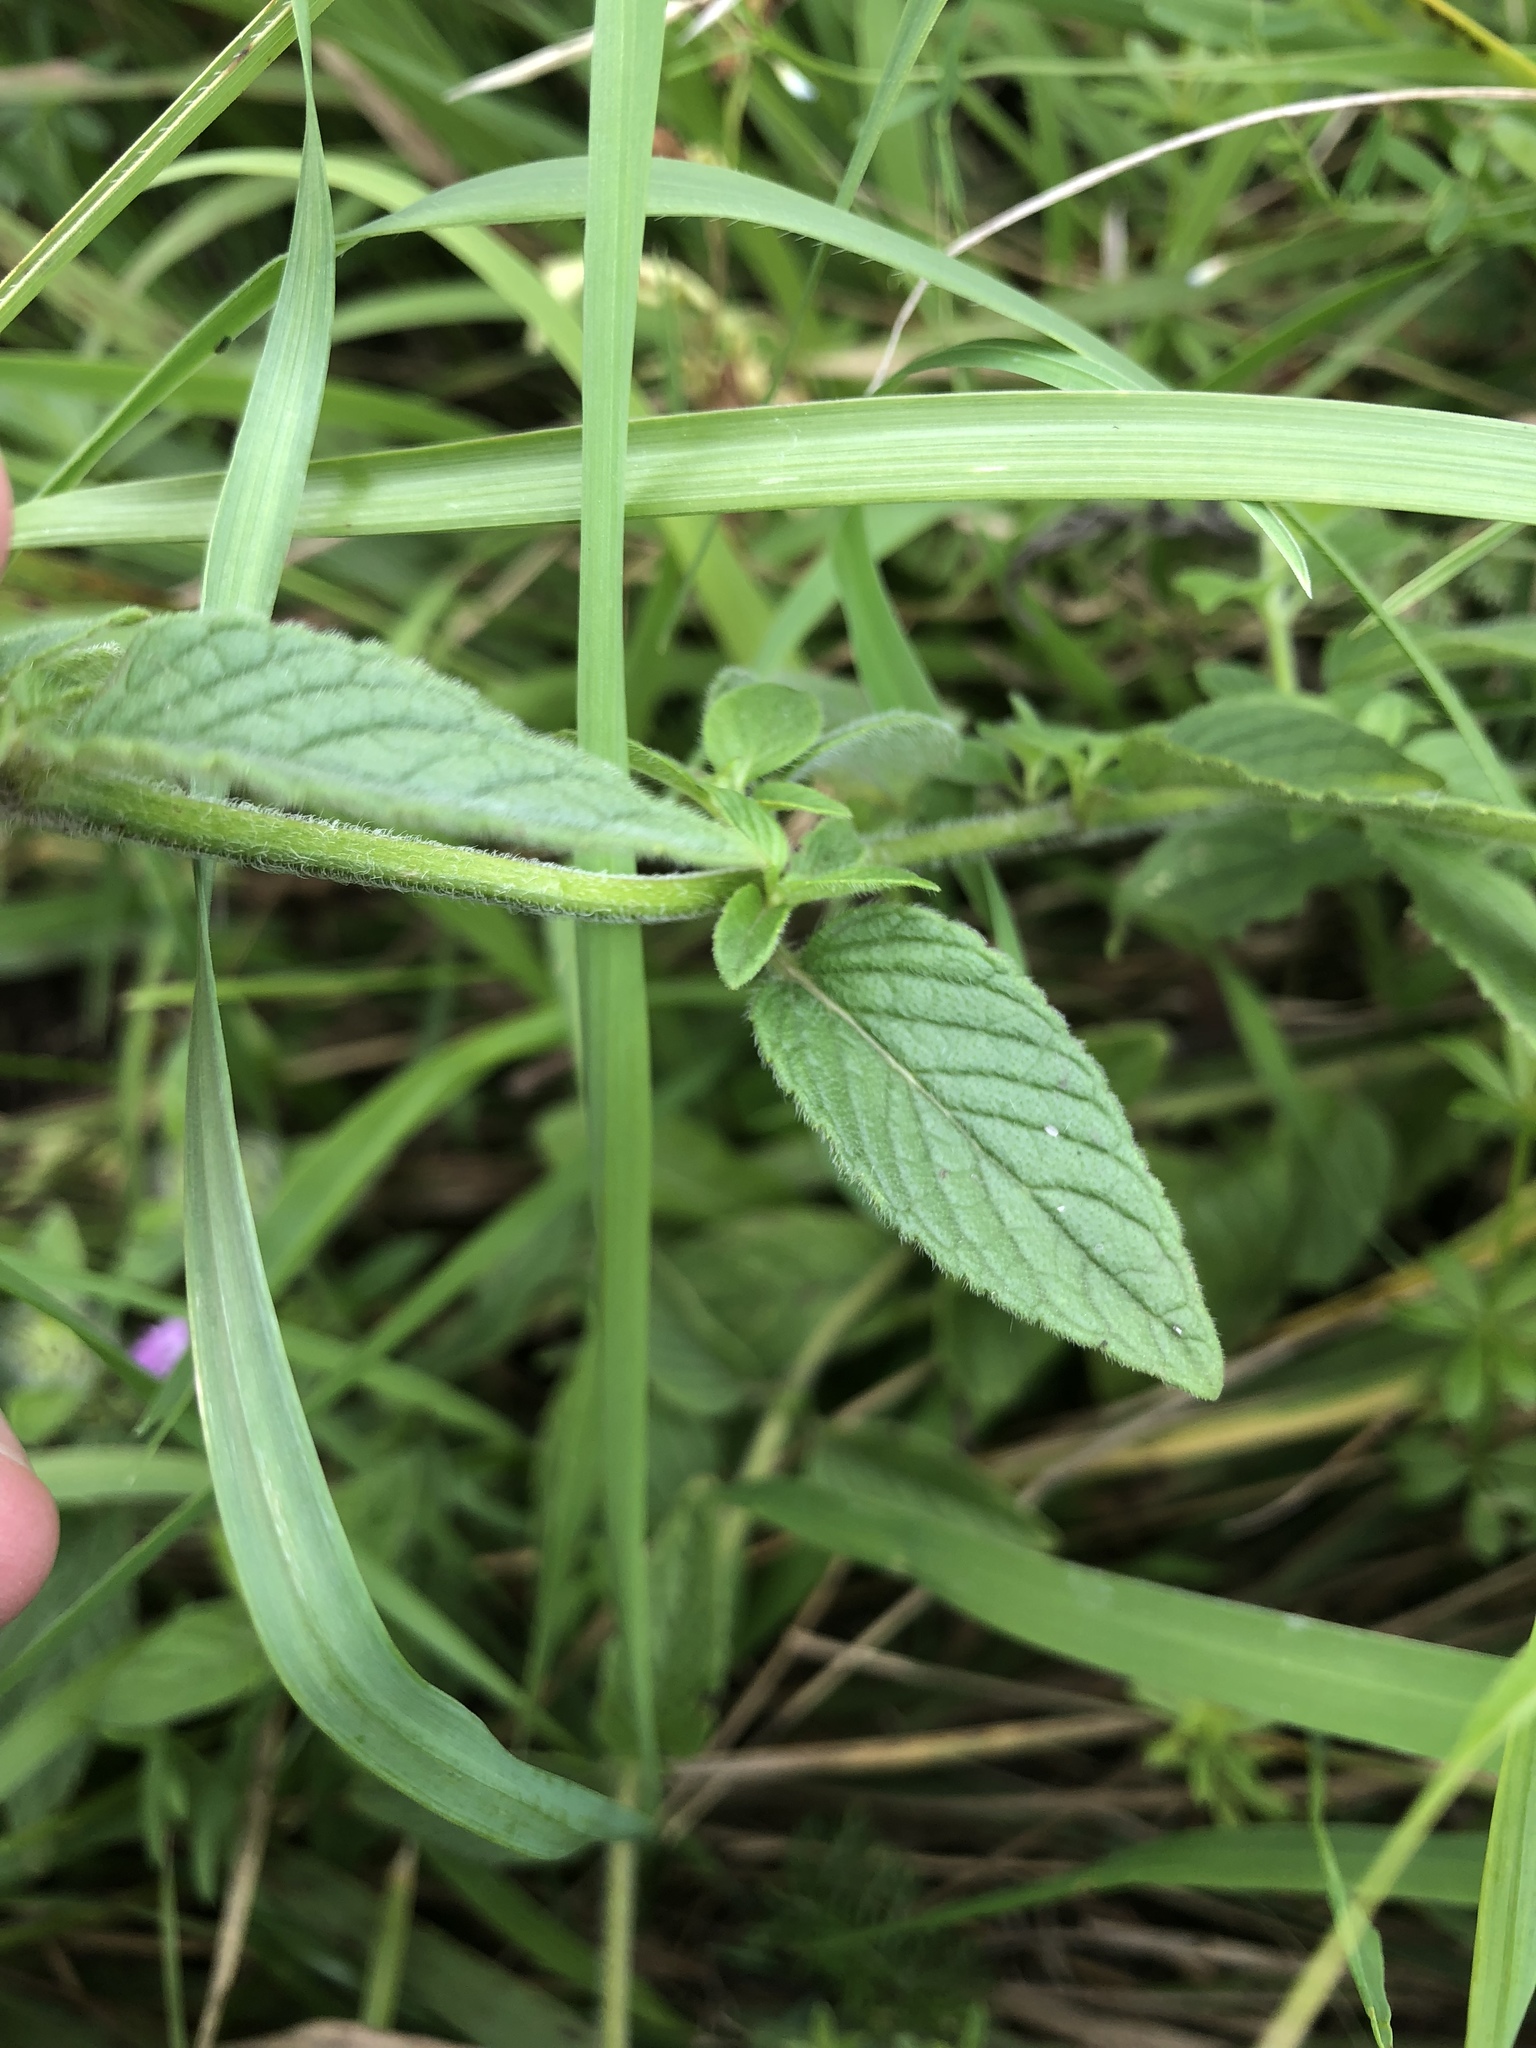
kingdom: Plantae
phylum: Tracheophyta
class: Magnoliopsida
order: Lamiales
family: Lamiaceae
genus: Clinopodium
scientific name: Clinopodium vulgare
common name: Wild basil
